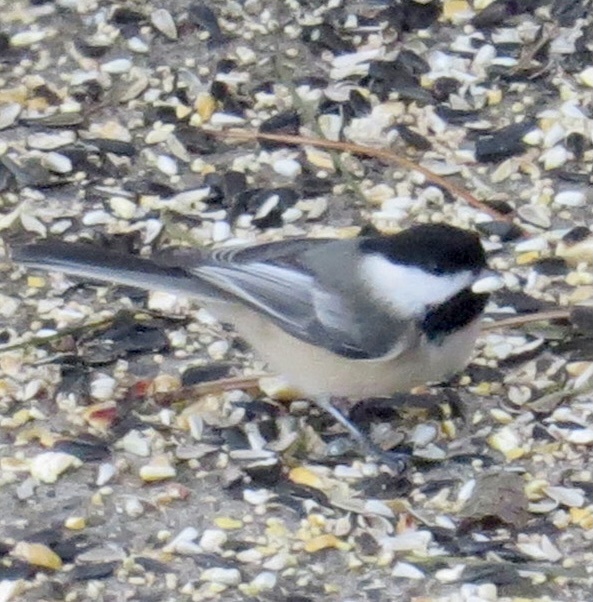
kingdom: Animalia
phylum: Chordata
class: Aves
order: Passeriformes
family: Paridae
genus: Poecile
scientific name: Poecile atricapillus
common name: Black-capped chickadee
